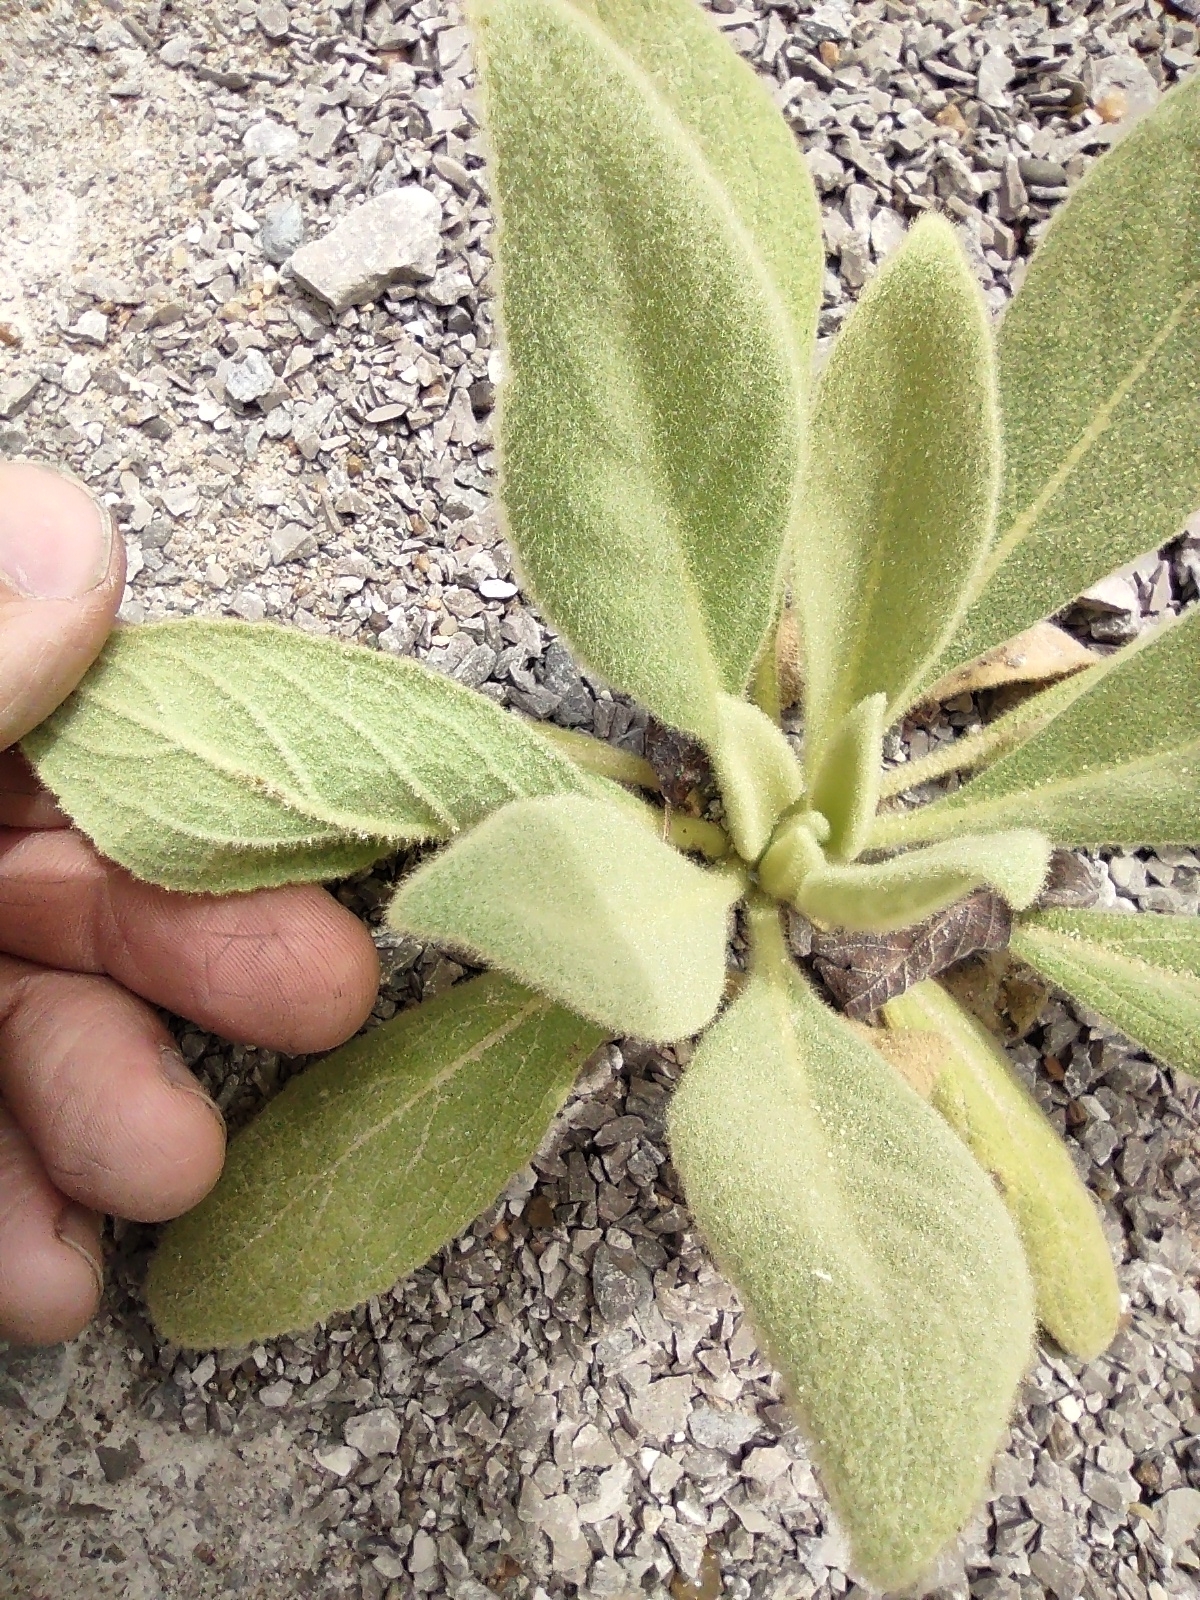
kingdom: Plantae
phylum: Tracheophyta
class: Magnoliopsida
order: Lamiales
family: Scrophulariaceae
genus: Verbascum
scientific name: Verbascum thapsus
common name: Common mullein
